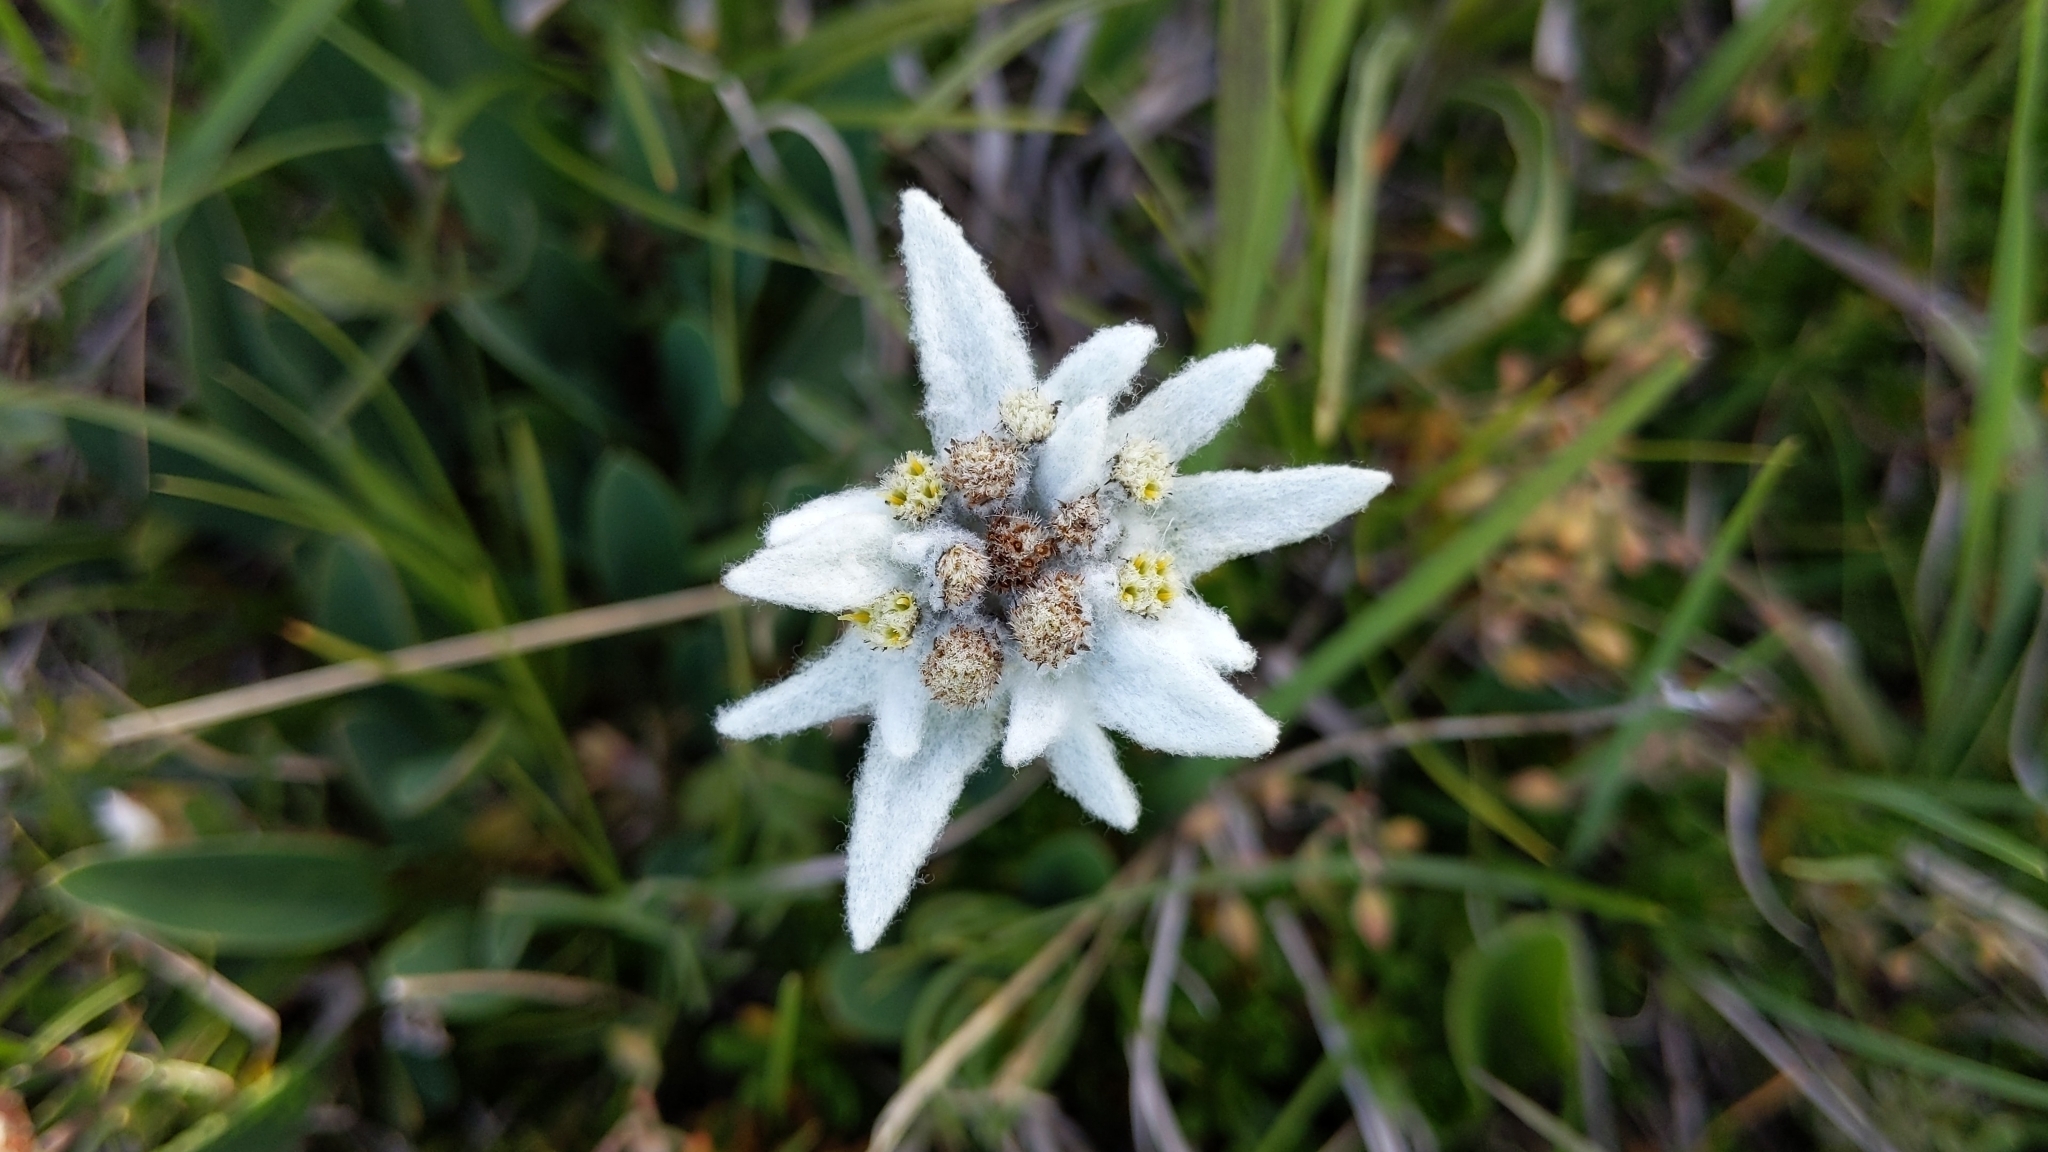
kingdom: Plantae
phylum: Tracheophyta
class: Magnoliopsida
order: Asterales
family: Asteraceae
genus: Leontopodium
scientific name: Leontopodium nivale
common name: Edelweiss
